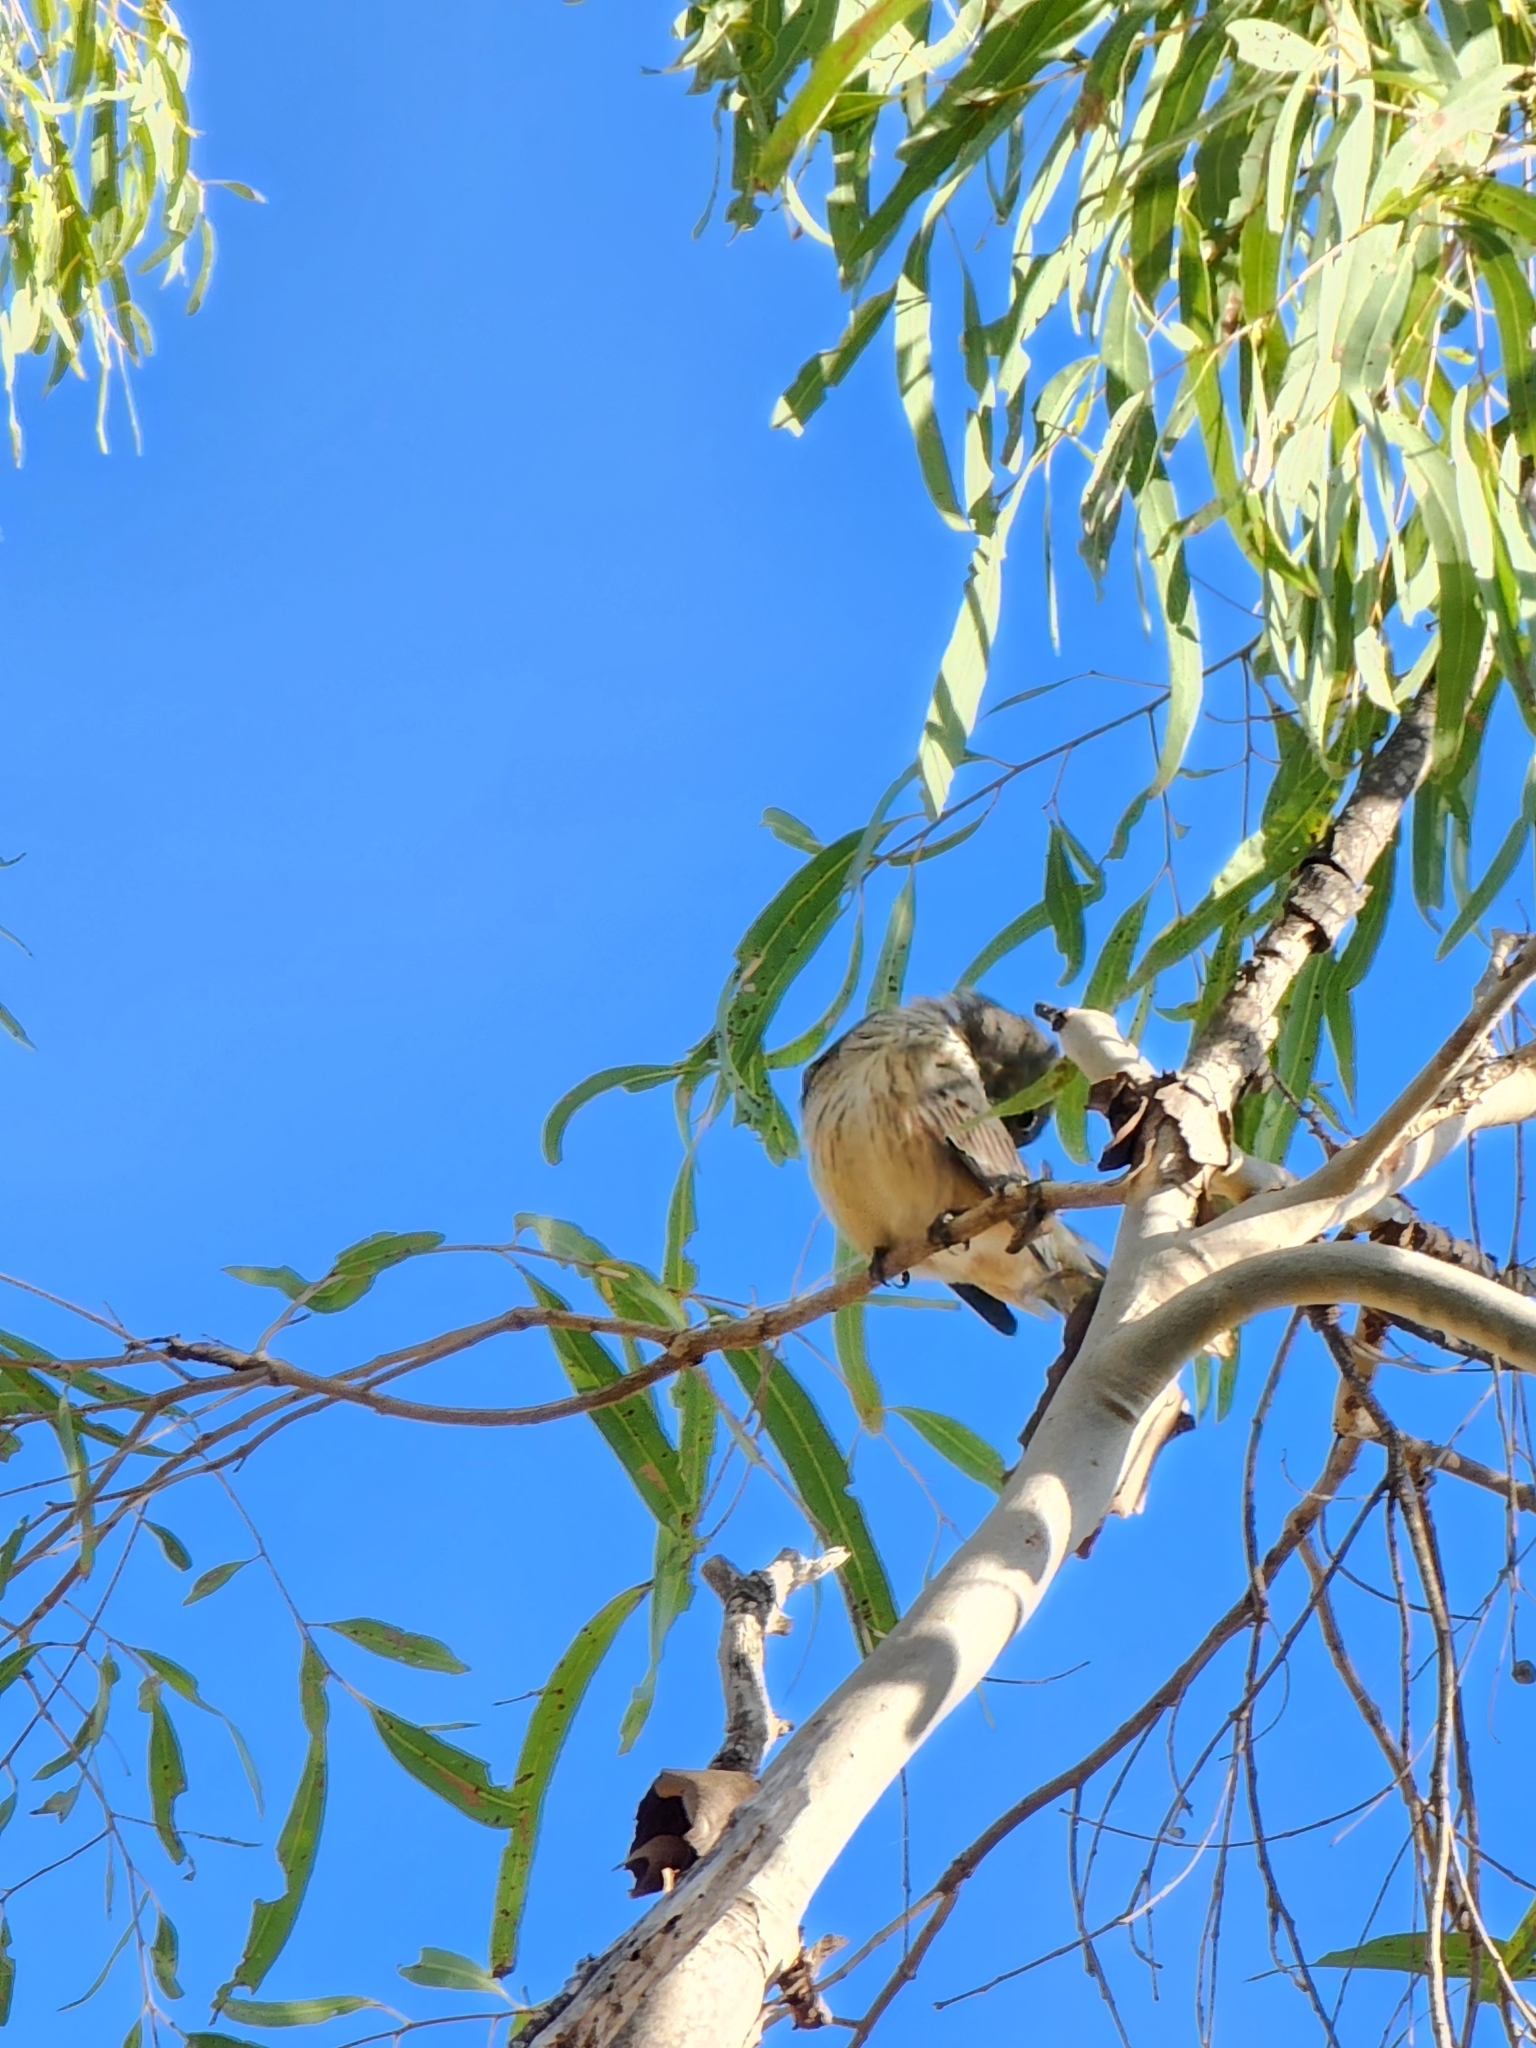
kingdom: Animalia
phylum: Chordata
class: Aves
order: Passeriformes
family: Pachycephalidae
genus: Pachycephala
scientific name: Pachycephala rufiventris
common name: Rufous whistler
